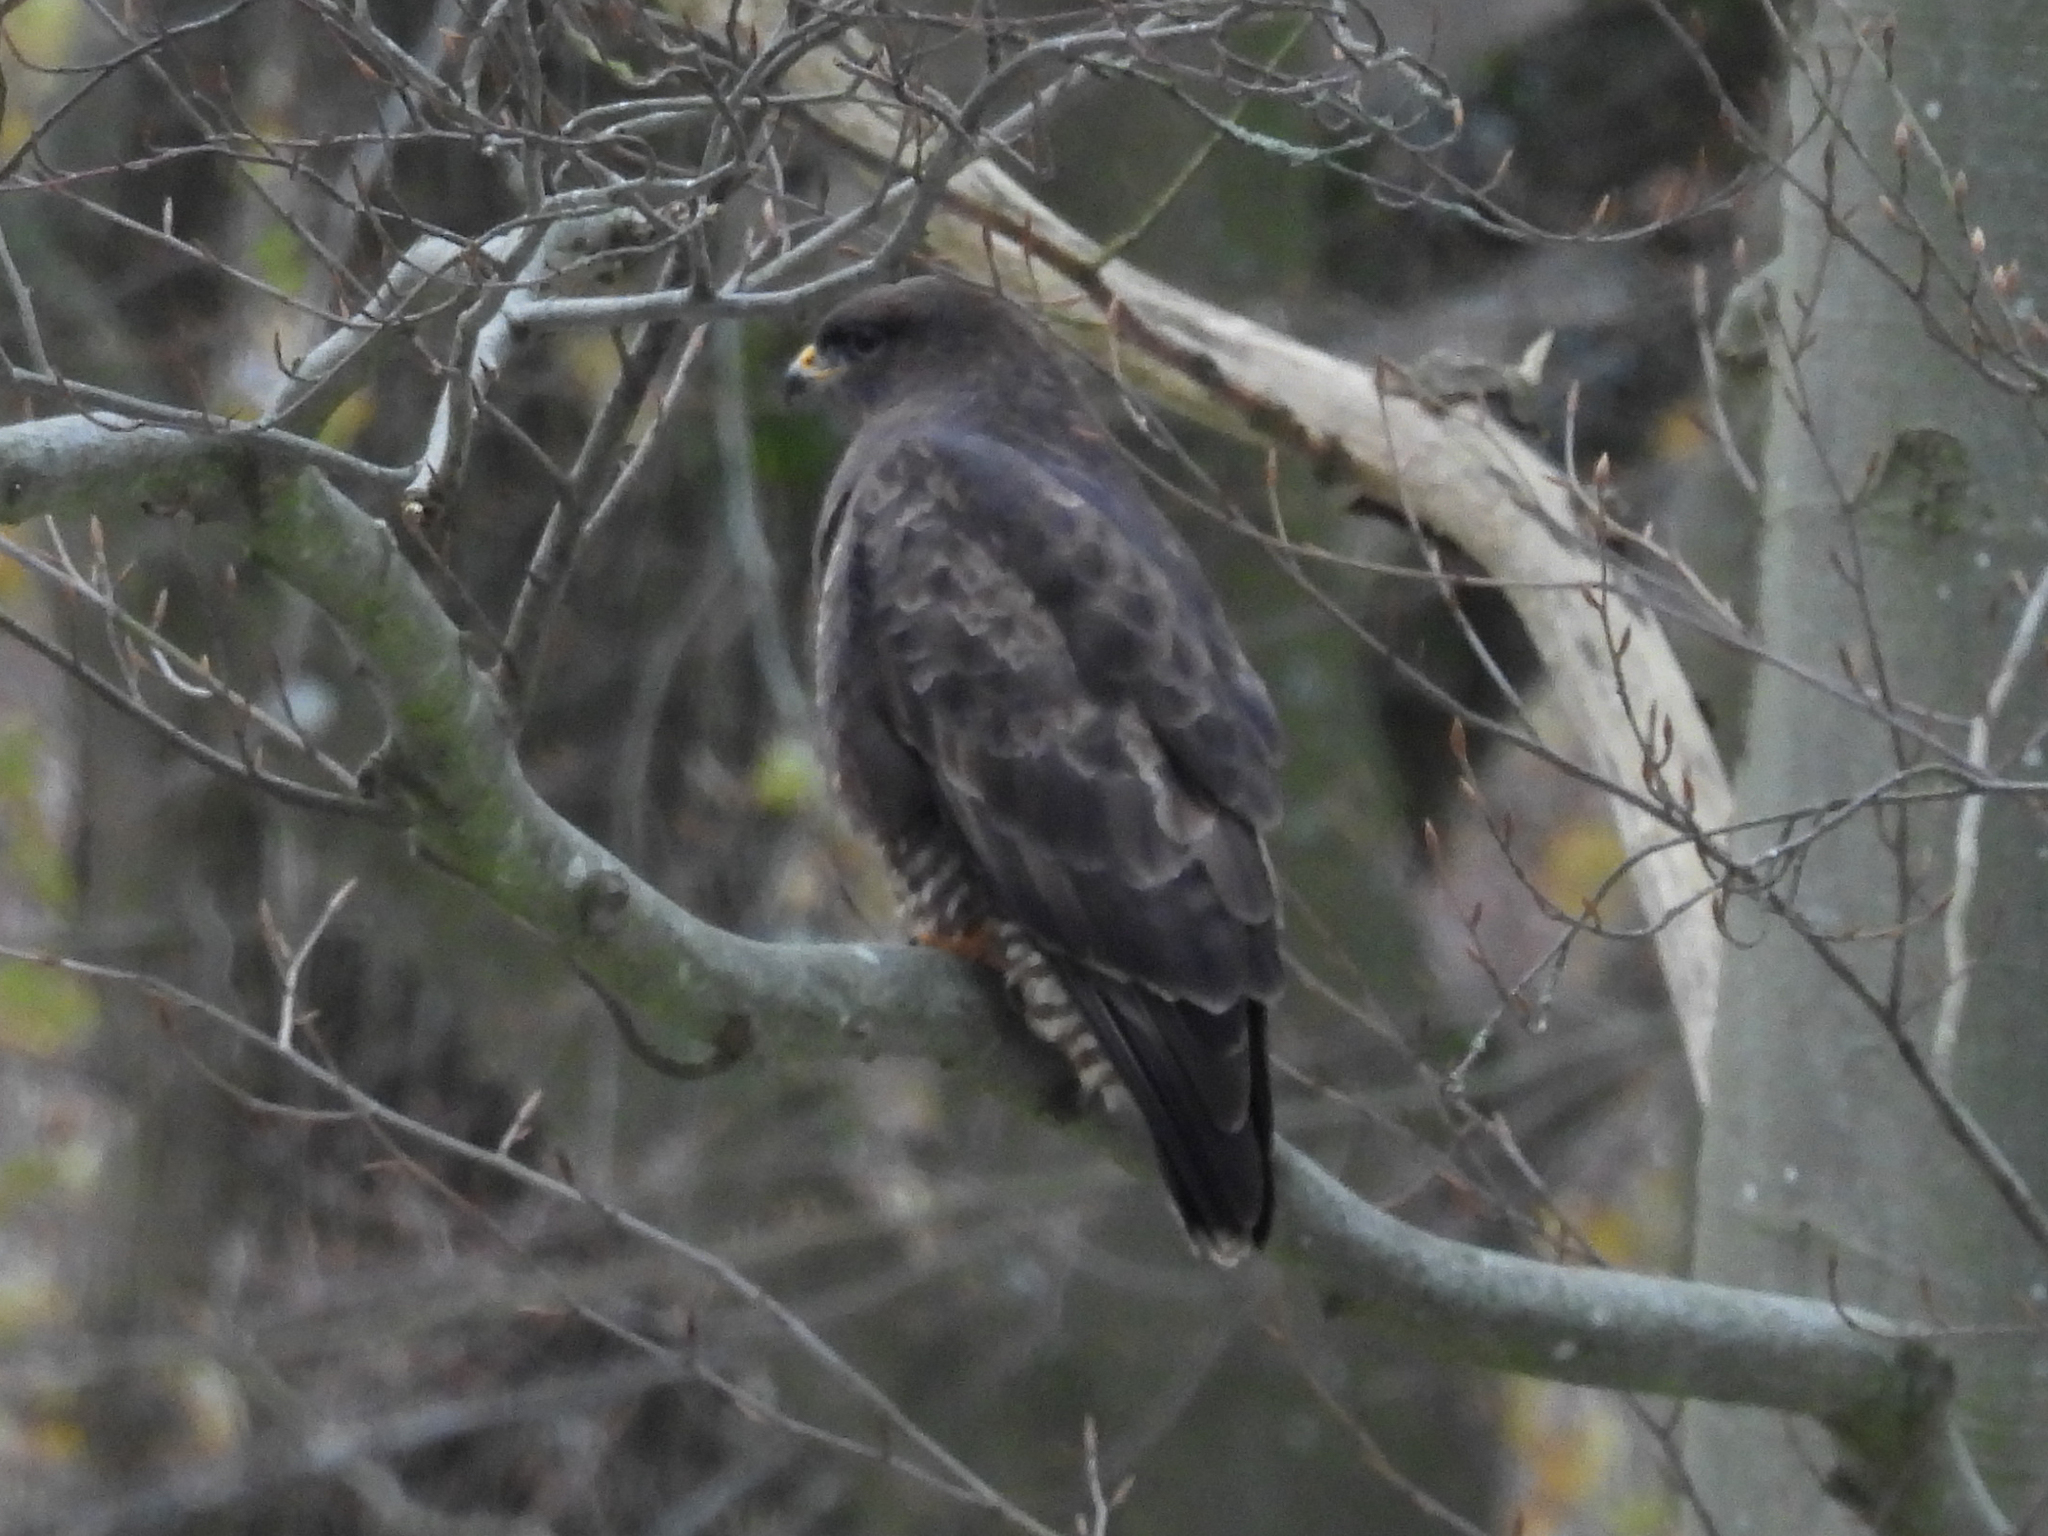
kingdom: Animalia
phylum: Chordata
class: Aves
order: Accipitriformes
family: Accipitridae
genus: Buteo
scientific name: Buteo buteo
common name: Common buzzard
